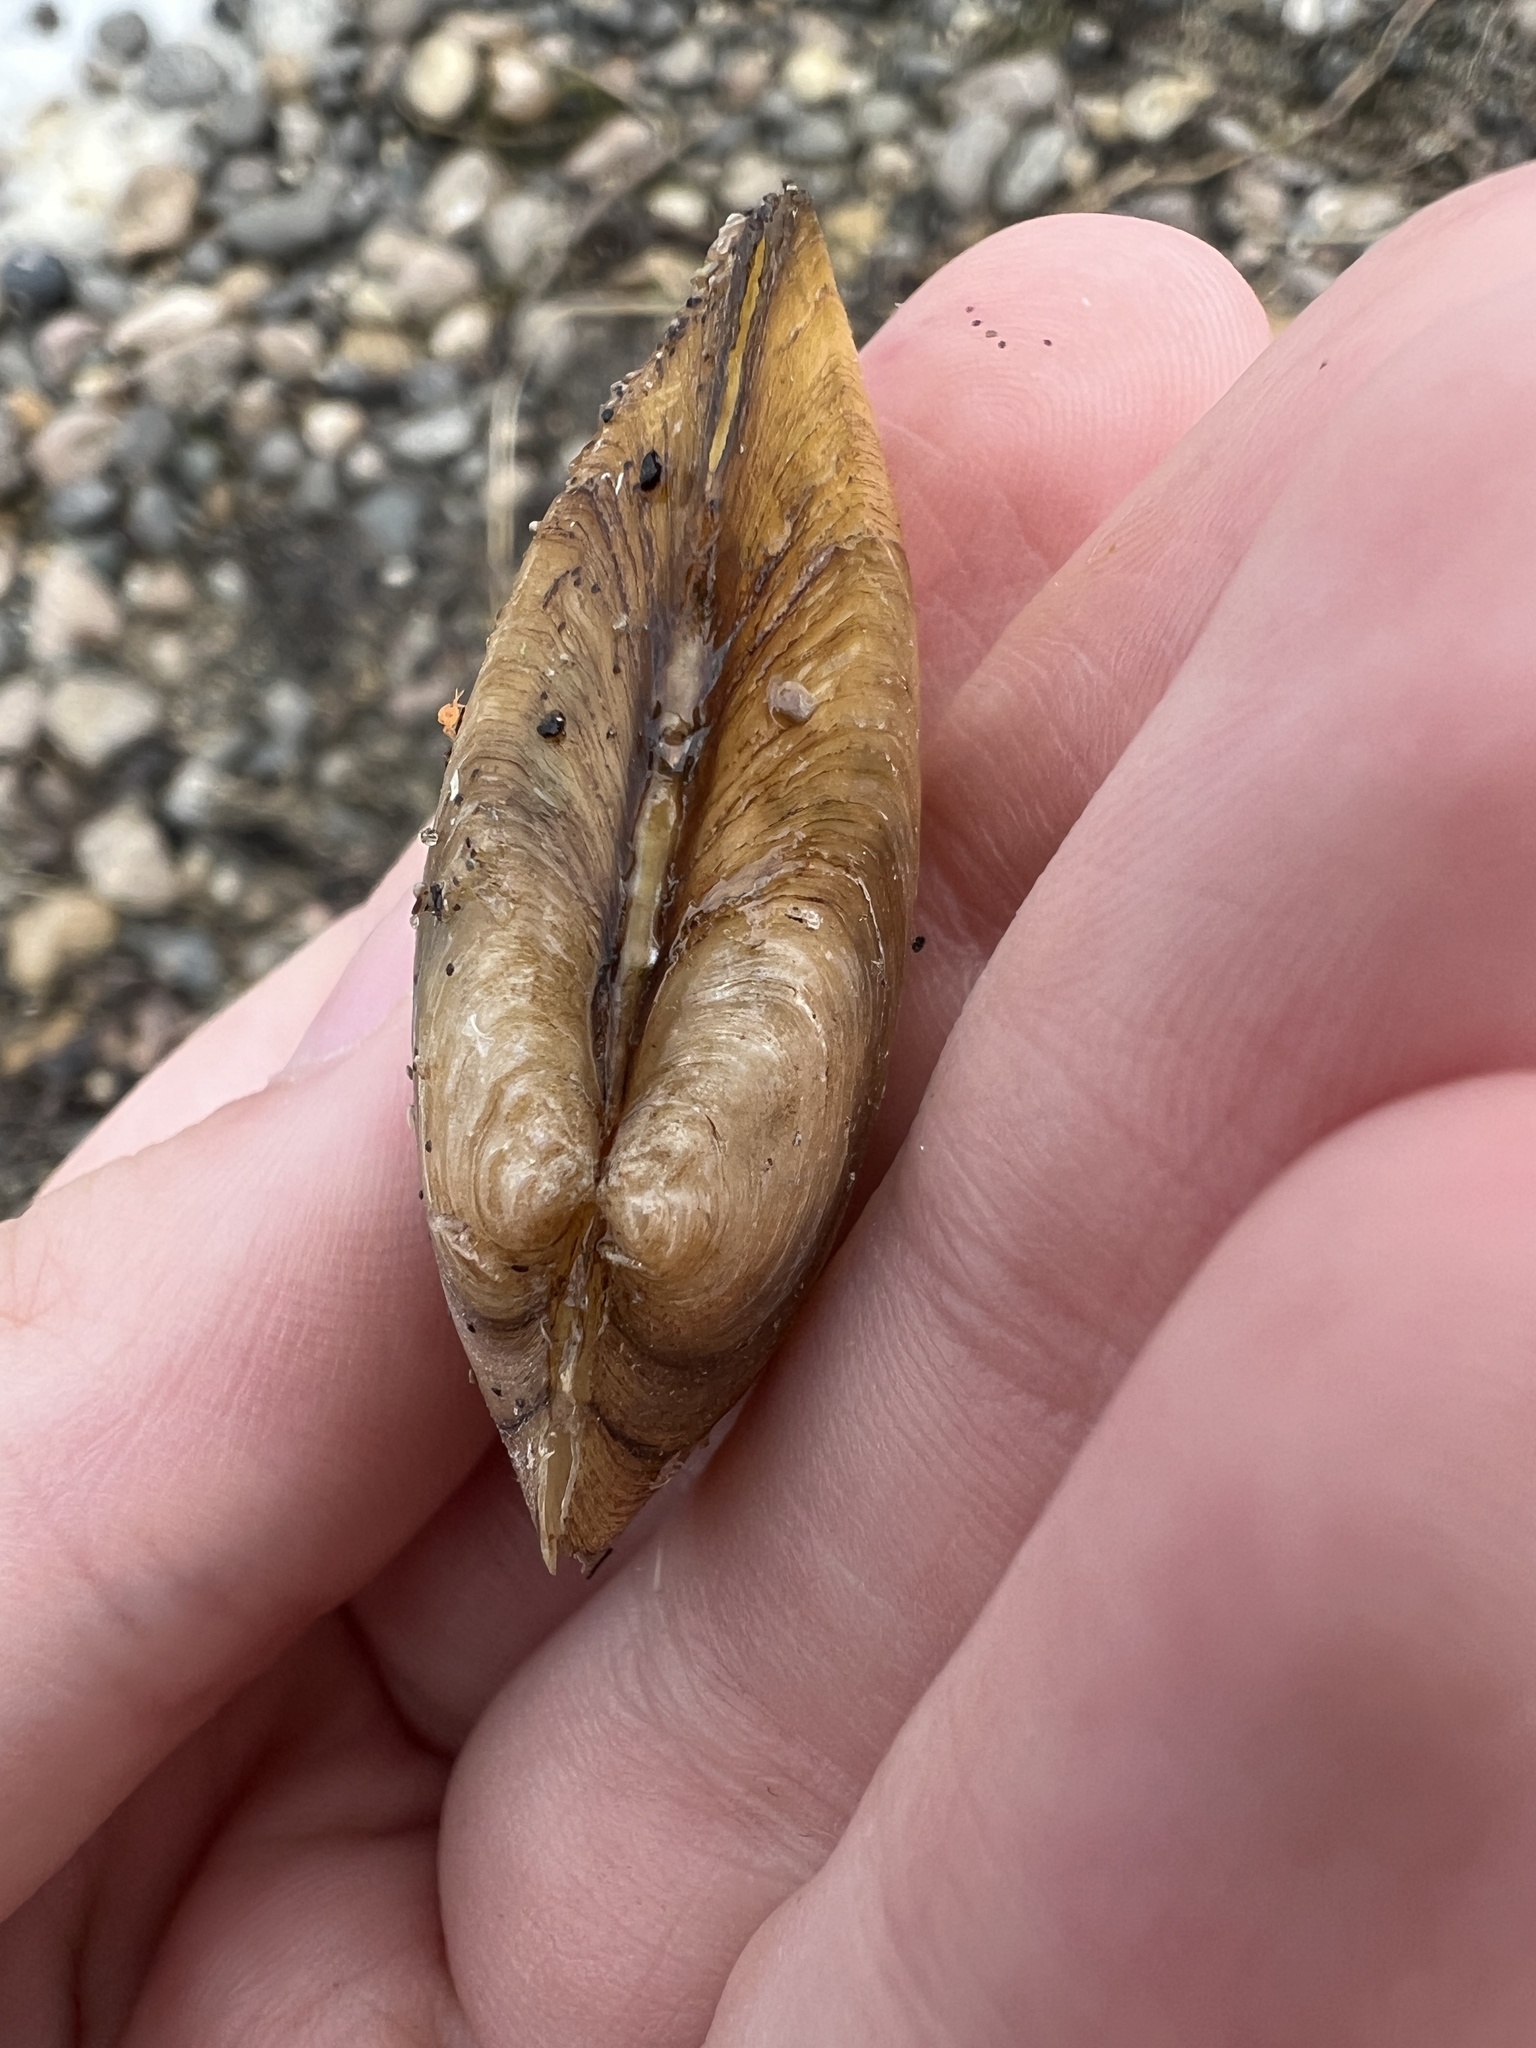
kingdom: Animalia
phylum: Mollusca
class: Bivalvia
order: Unionida
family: Unionidae
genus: Pyganodon
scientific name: Pyganodon grandis
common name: Giant floater
